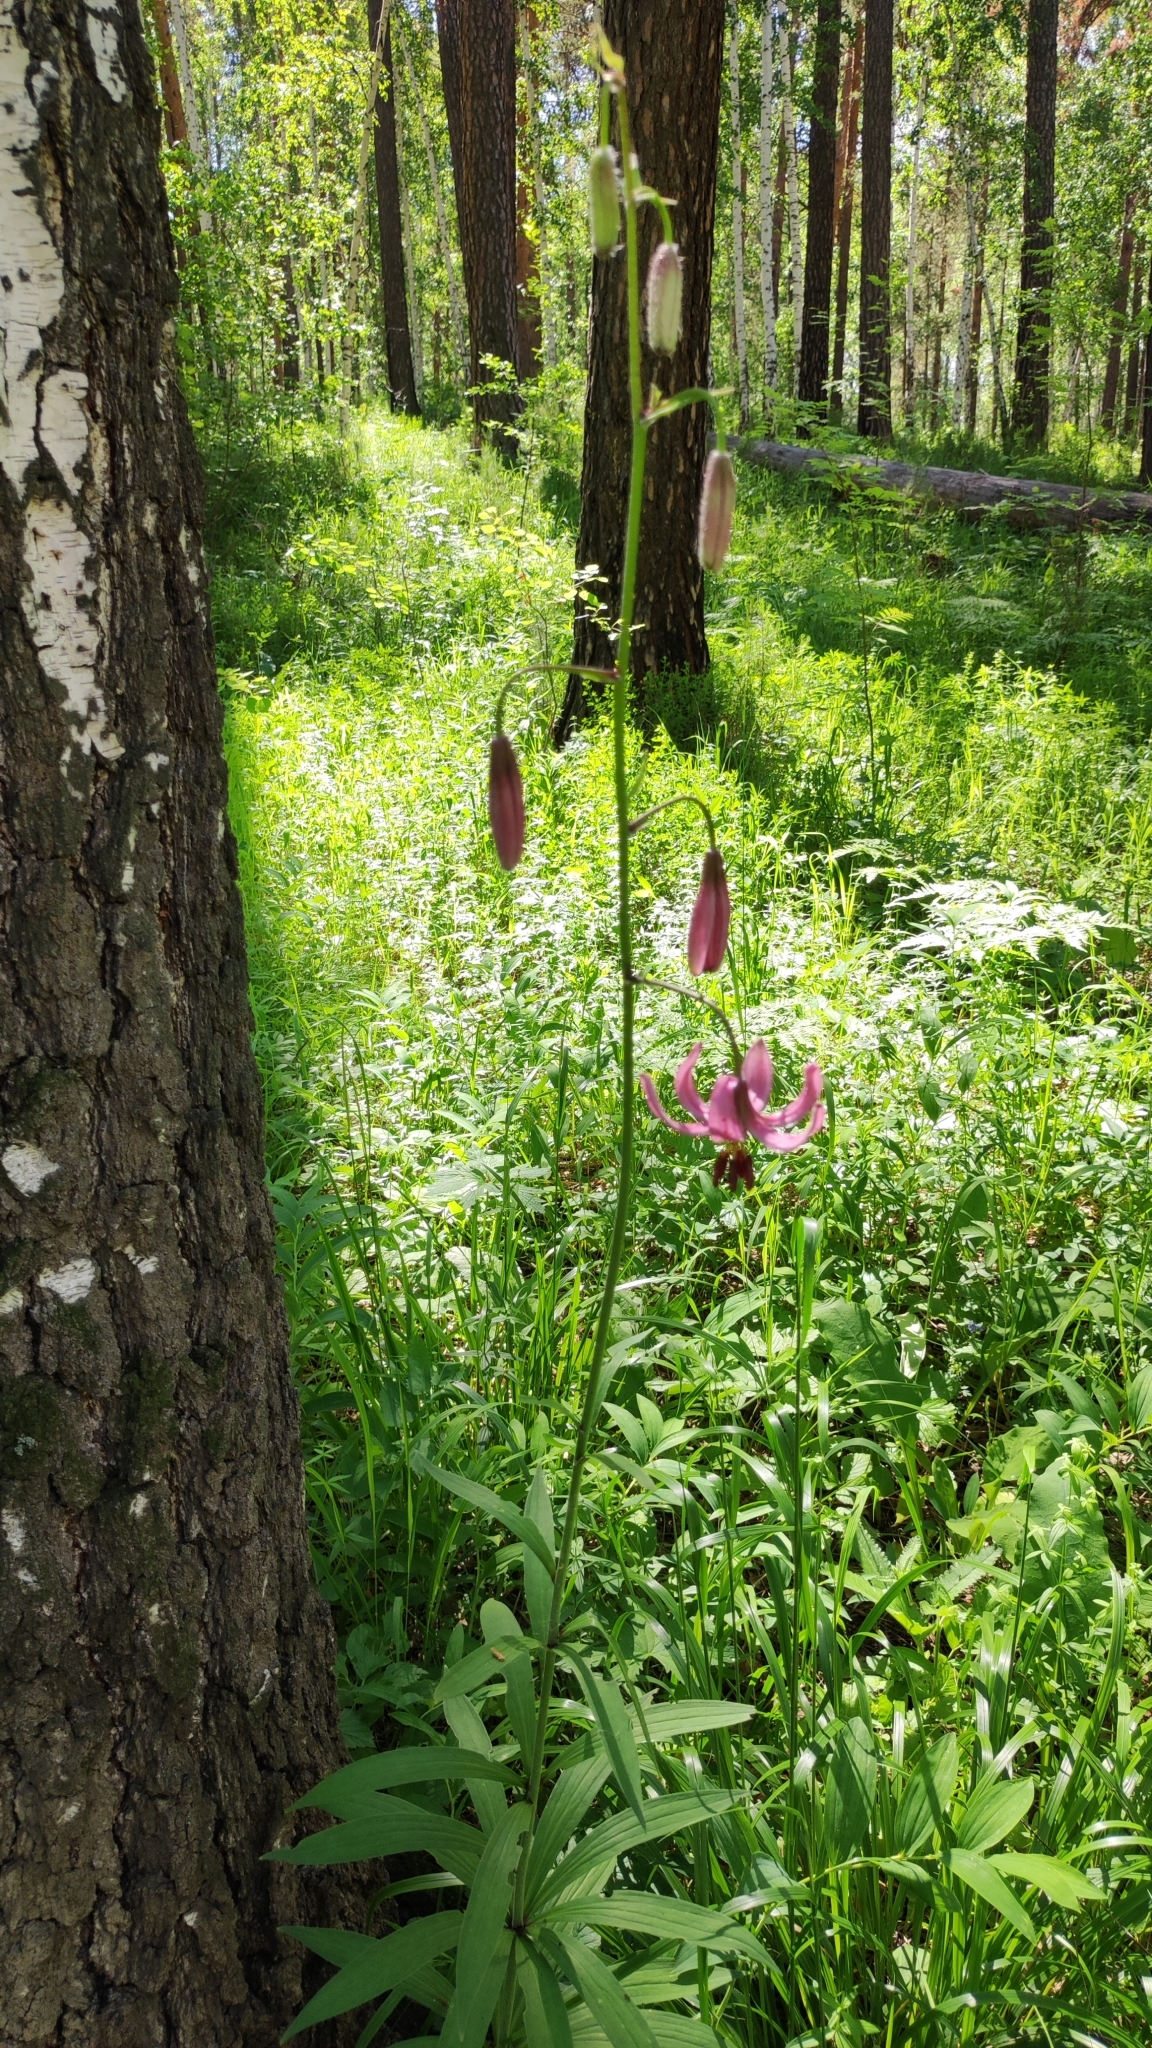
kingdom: Plantae
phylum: Tracheophyta
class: Liliopsida
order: Liliales
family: Liliaceae
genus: Lilium
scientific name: Lilium martagon
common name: Martagon lily
